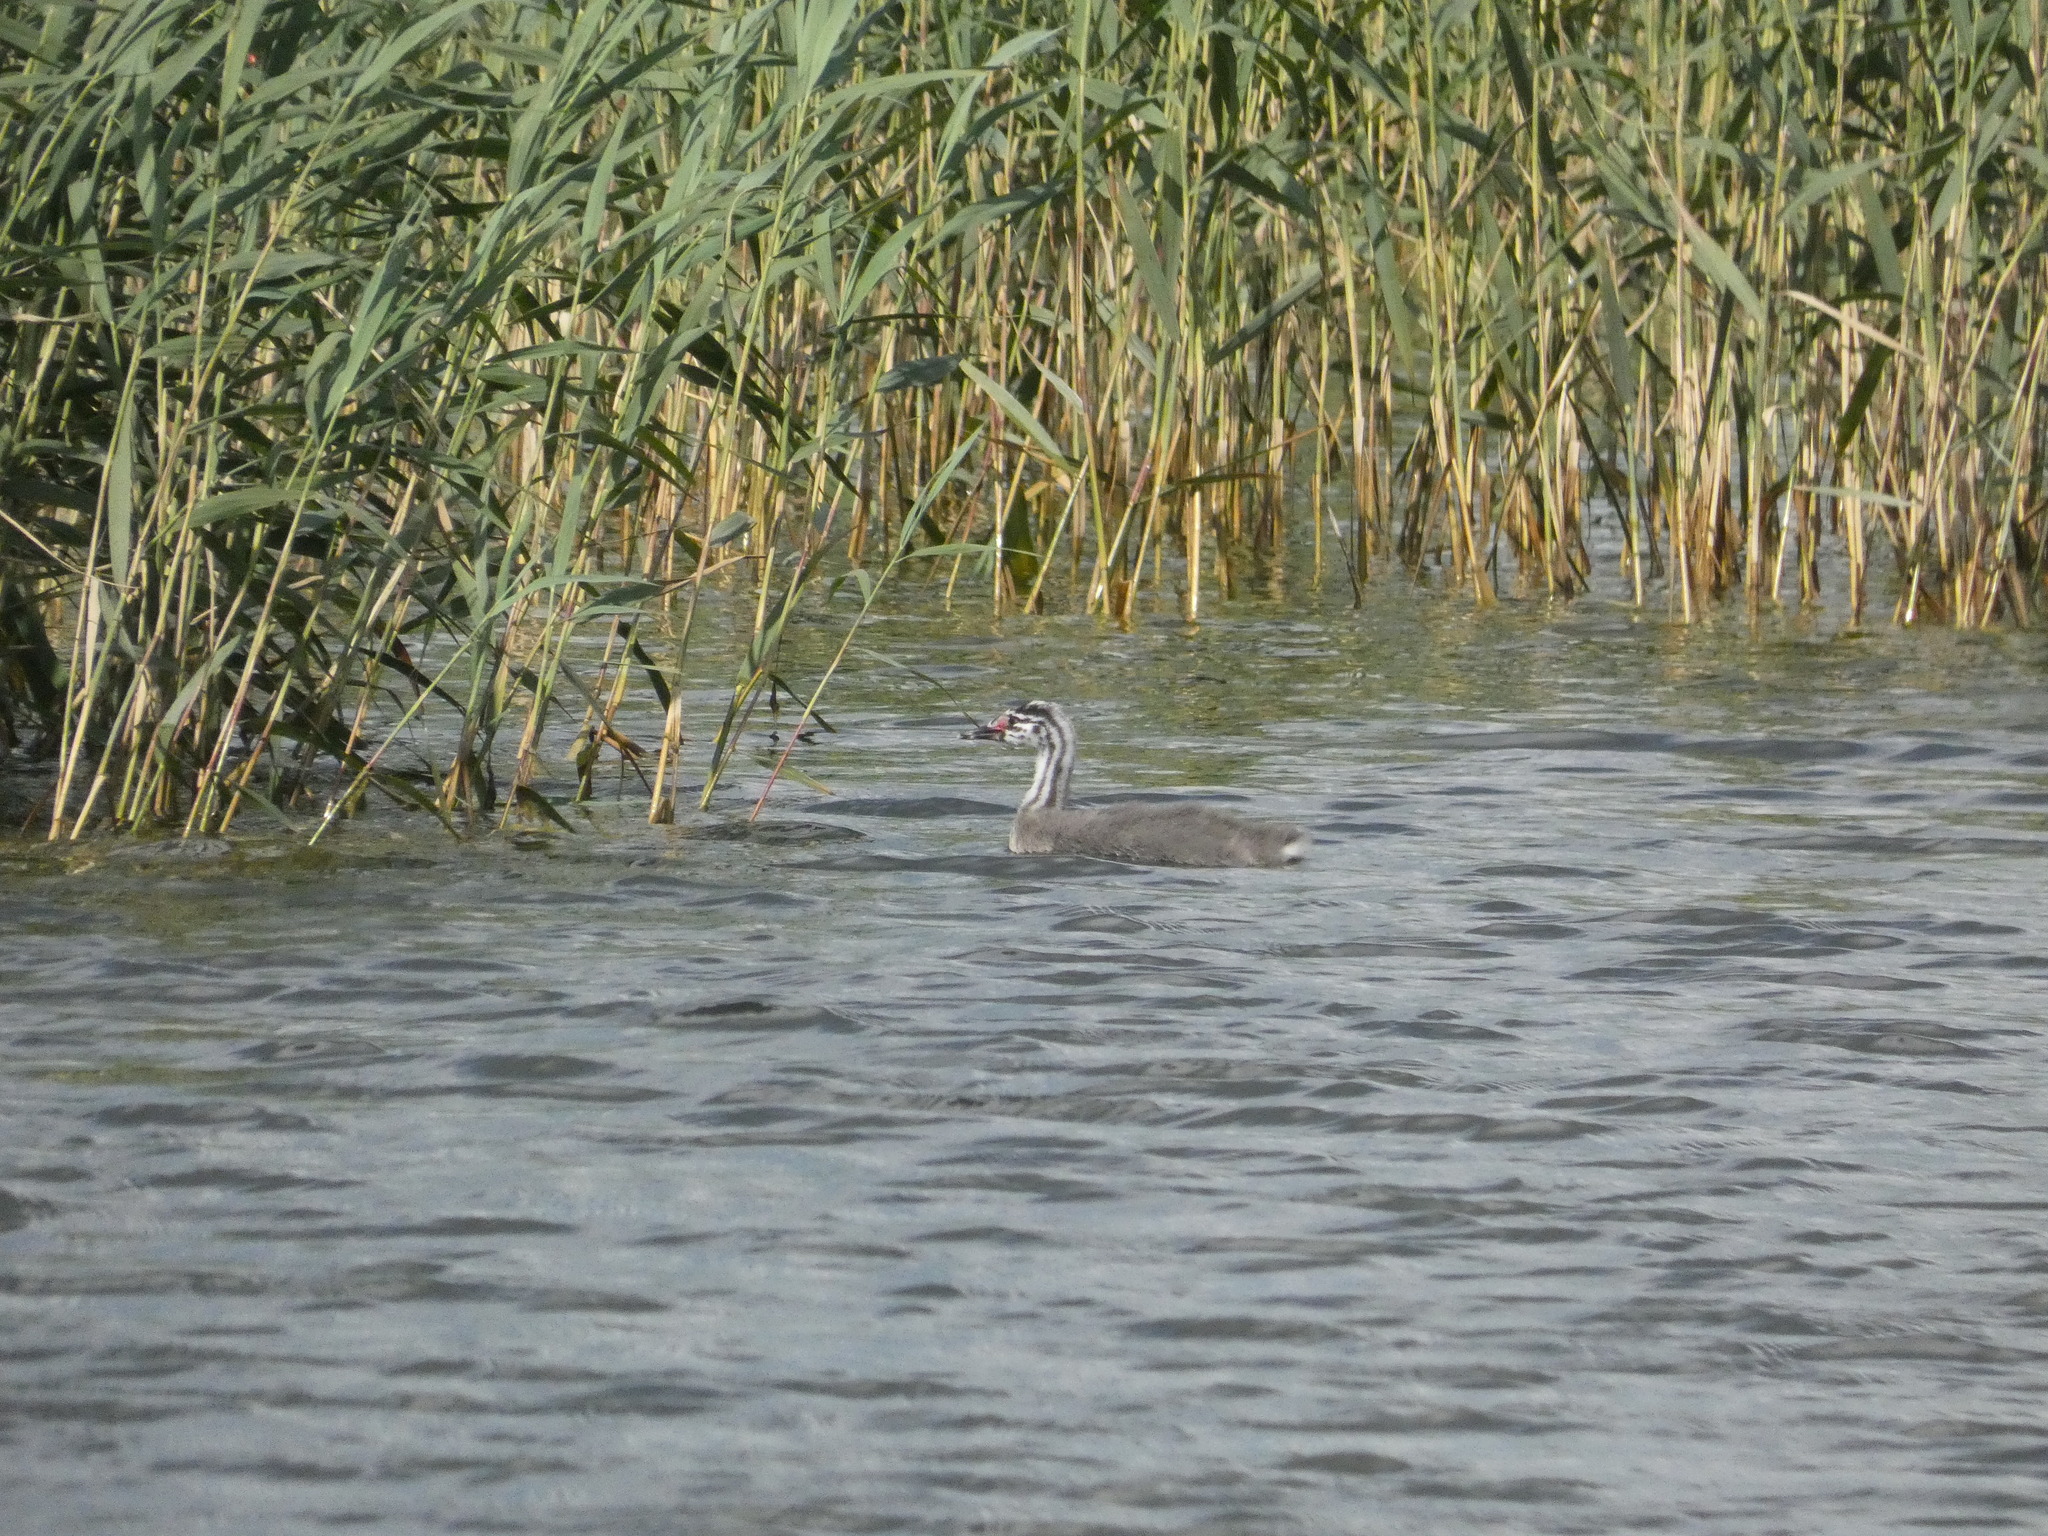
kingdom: Animalia
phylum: Chordata
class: Aves
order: Podicipediformes
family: Podicipedidae
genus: Podiceps
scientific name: Podiceps cristatus
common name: Great crested grebe
